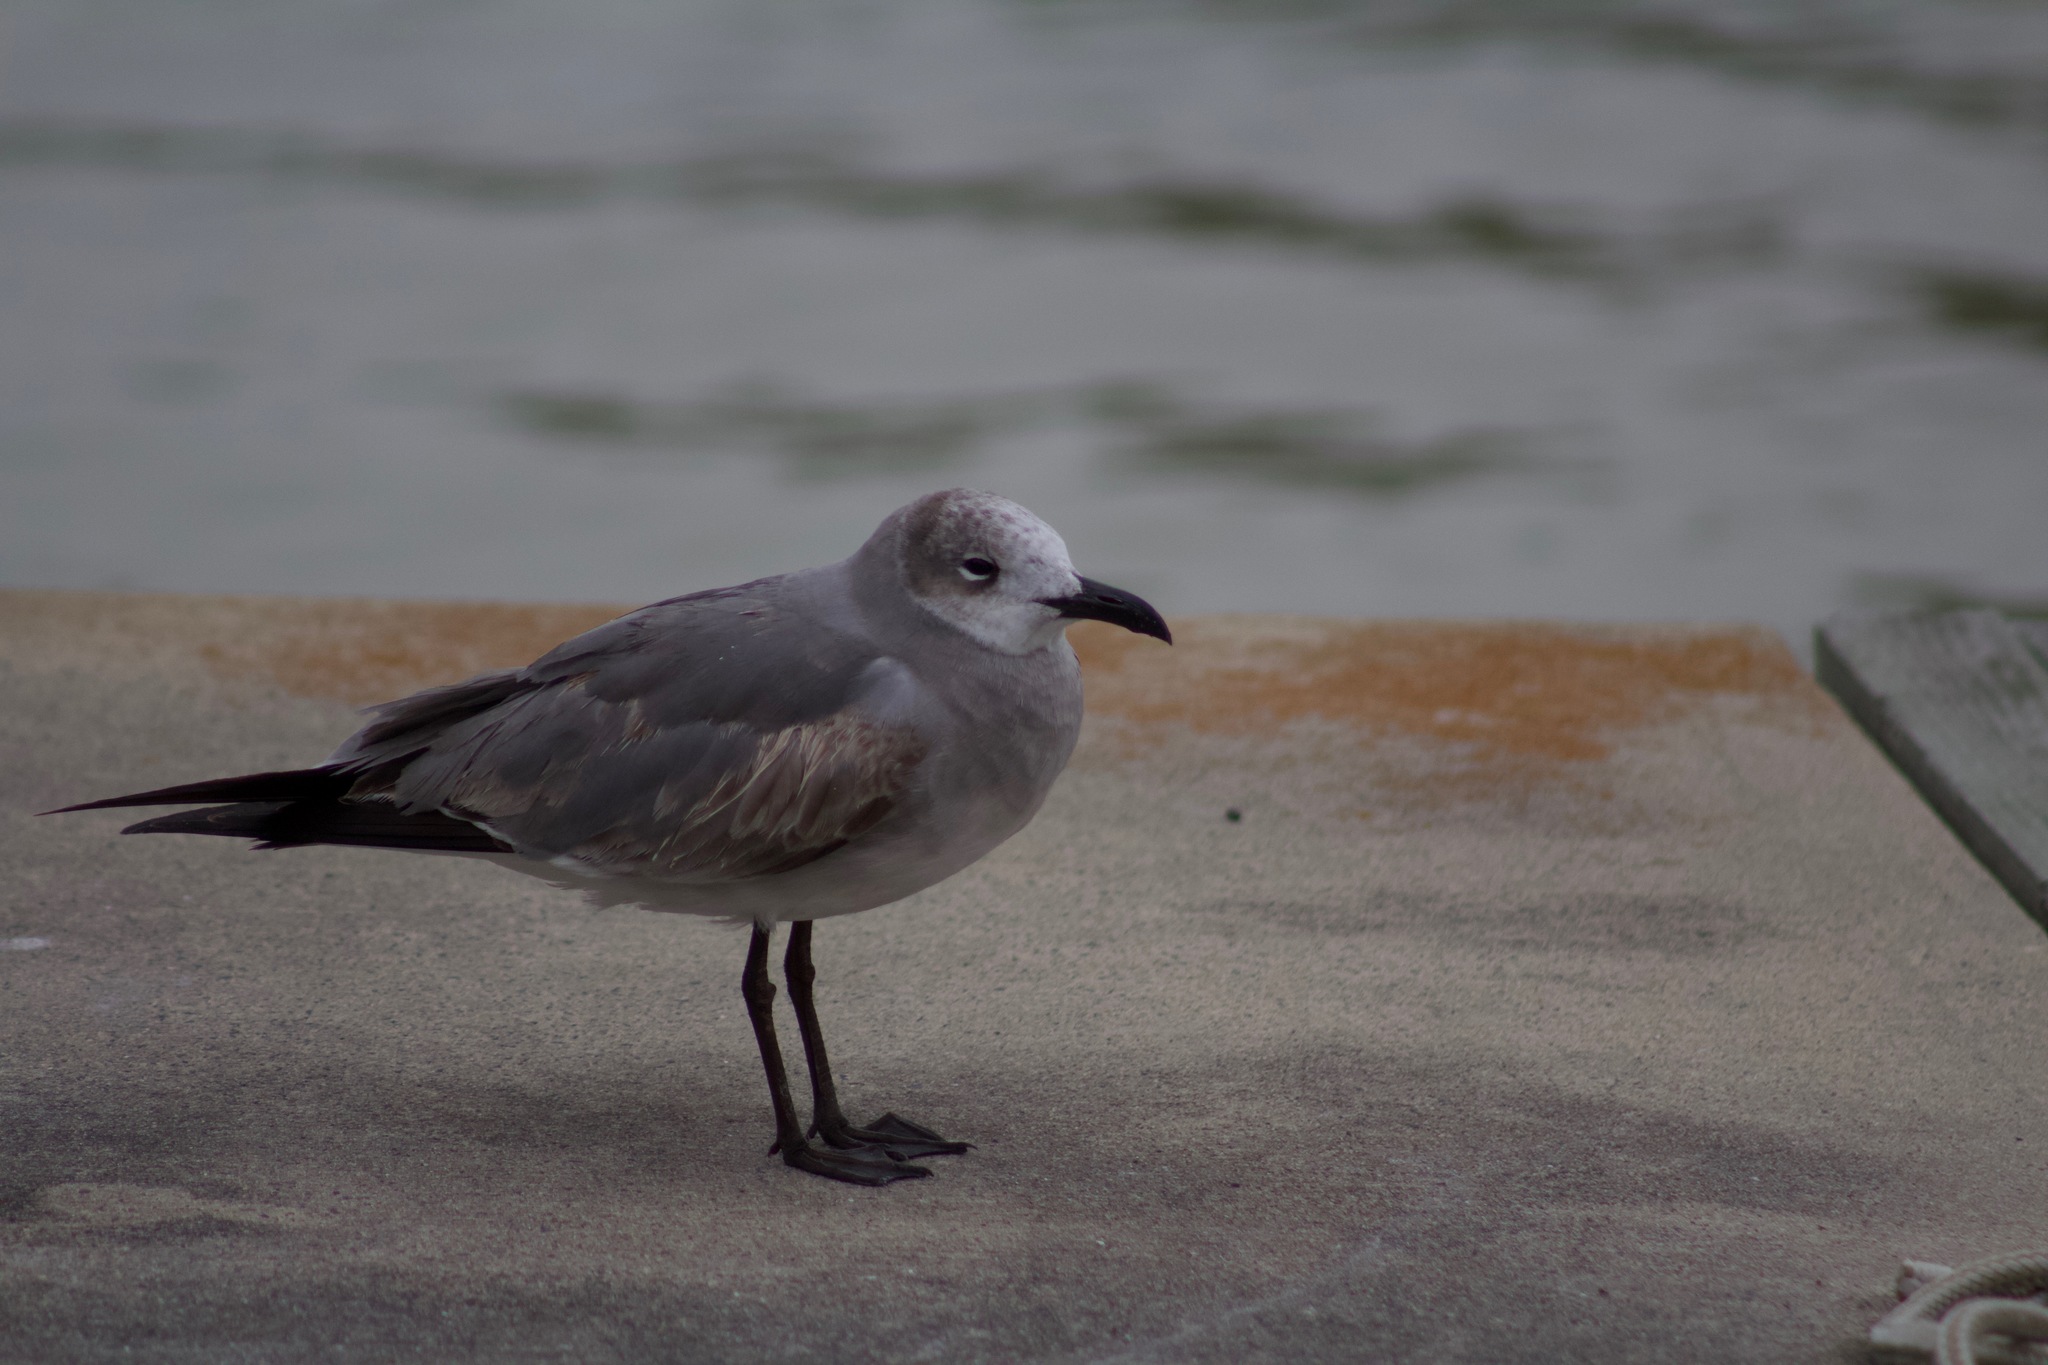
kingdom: Animalia
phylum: Chordata
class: Aves
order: Charadriiformes
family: Laridae
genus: Leucophaeus
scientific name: Leucophaeus atricilla
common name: Laughing gull
